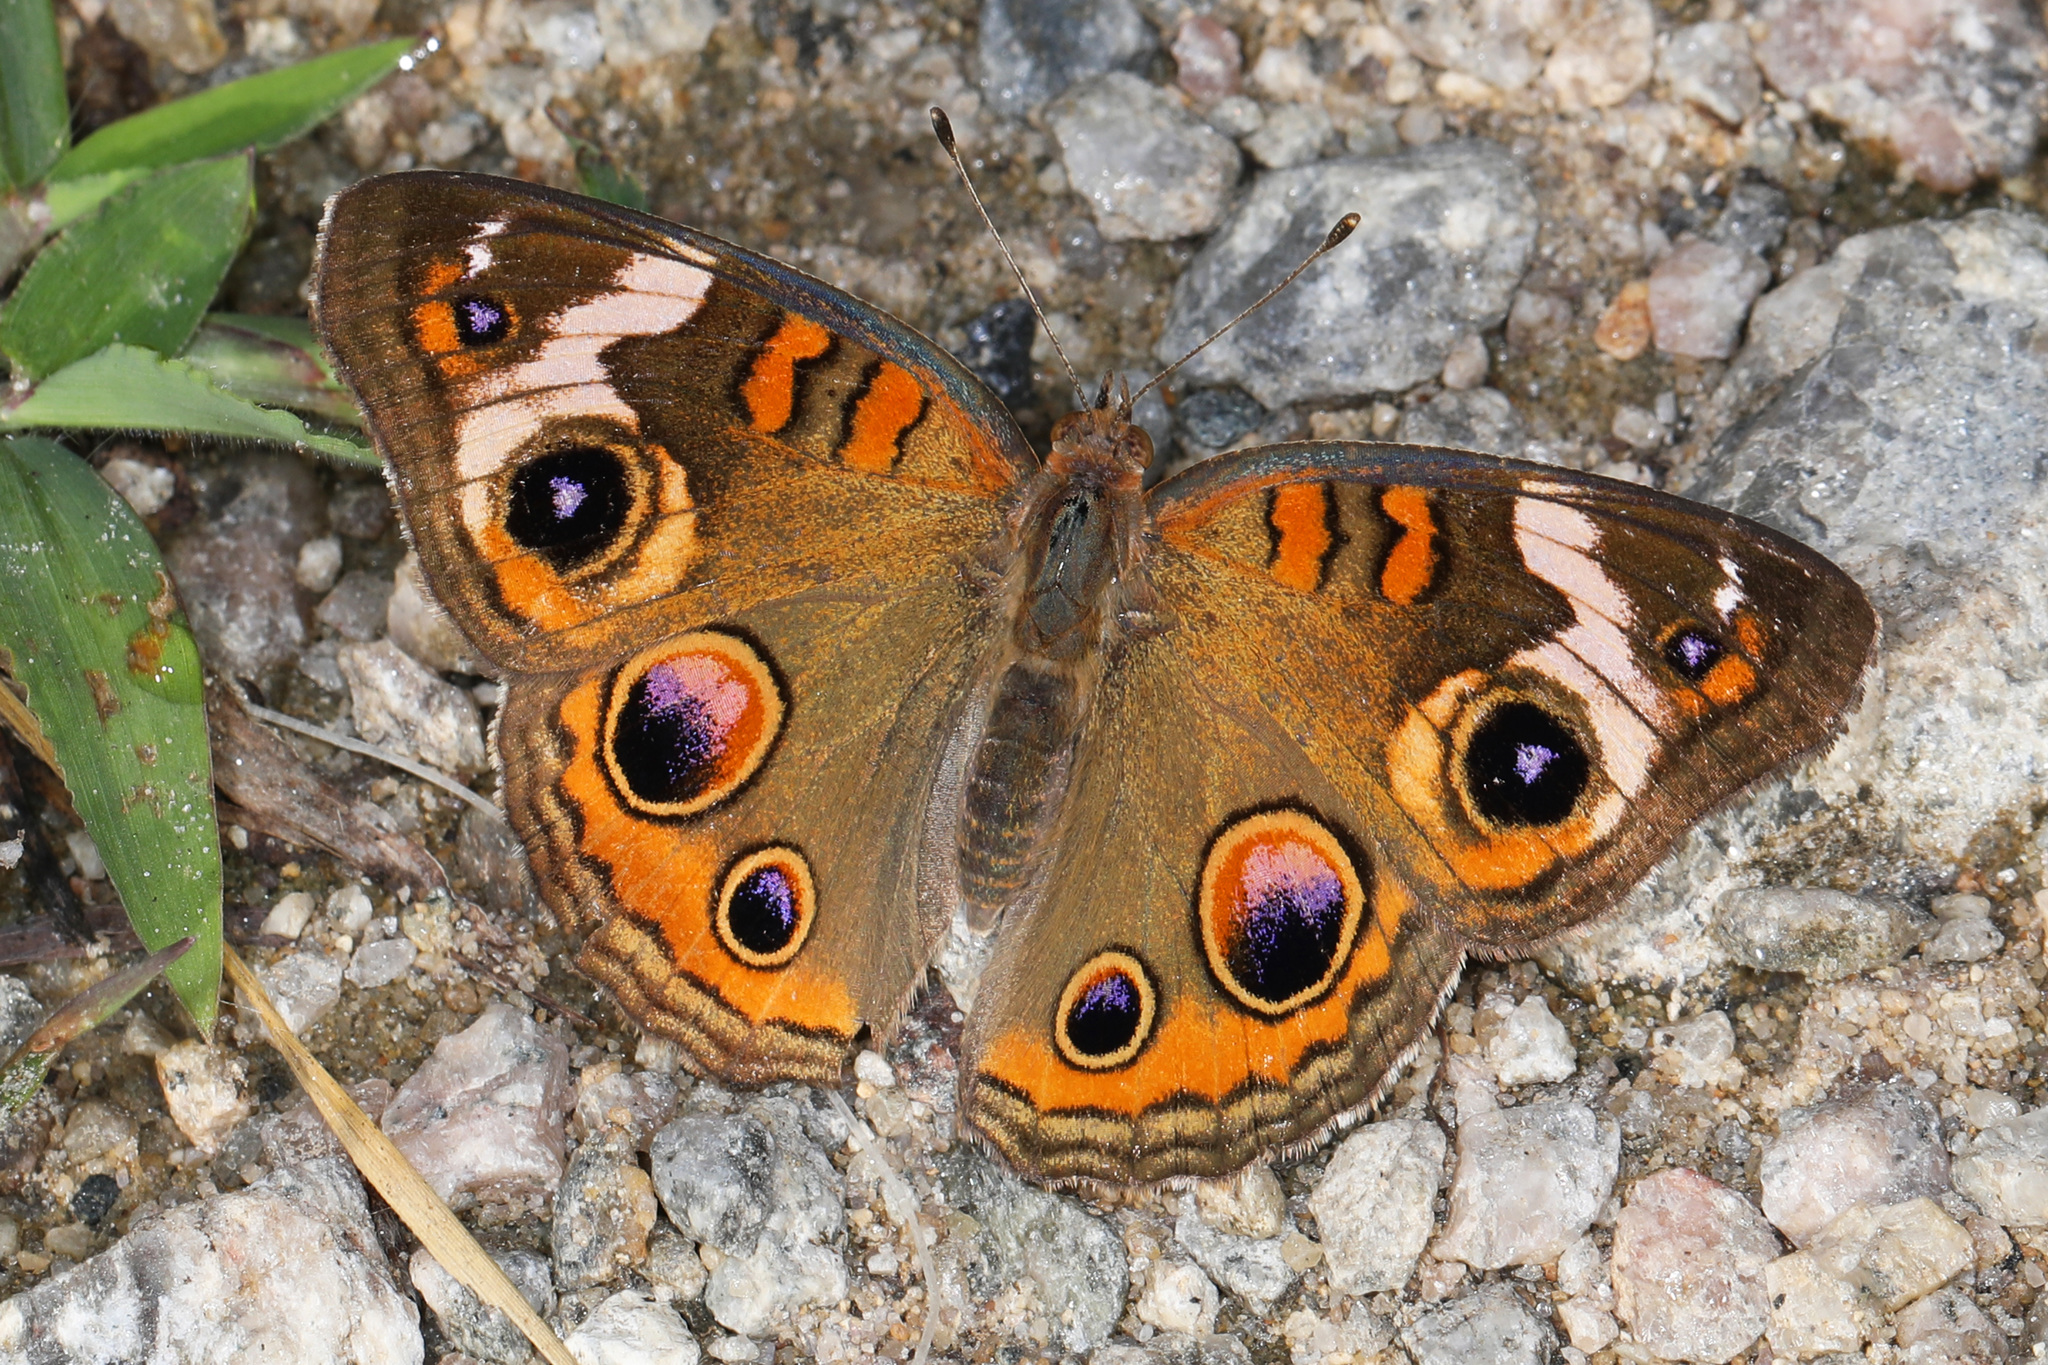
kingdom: Animalia
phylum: Arthropoda
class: Insecta
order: Lepidoptera
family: Nymphalidae
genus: Junonia
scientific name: Junonia coenia
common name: Common buckeye
